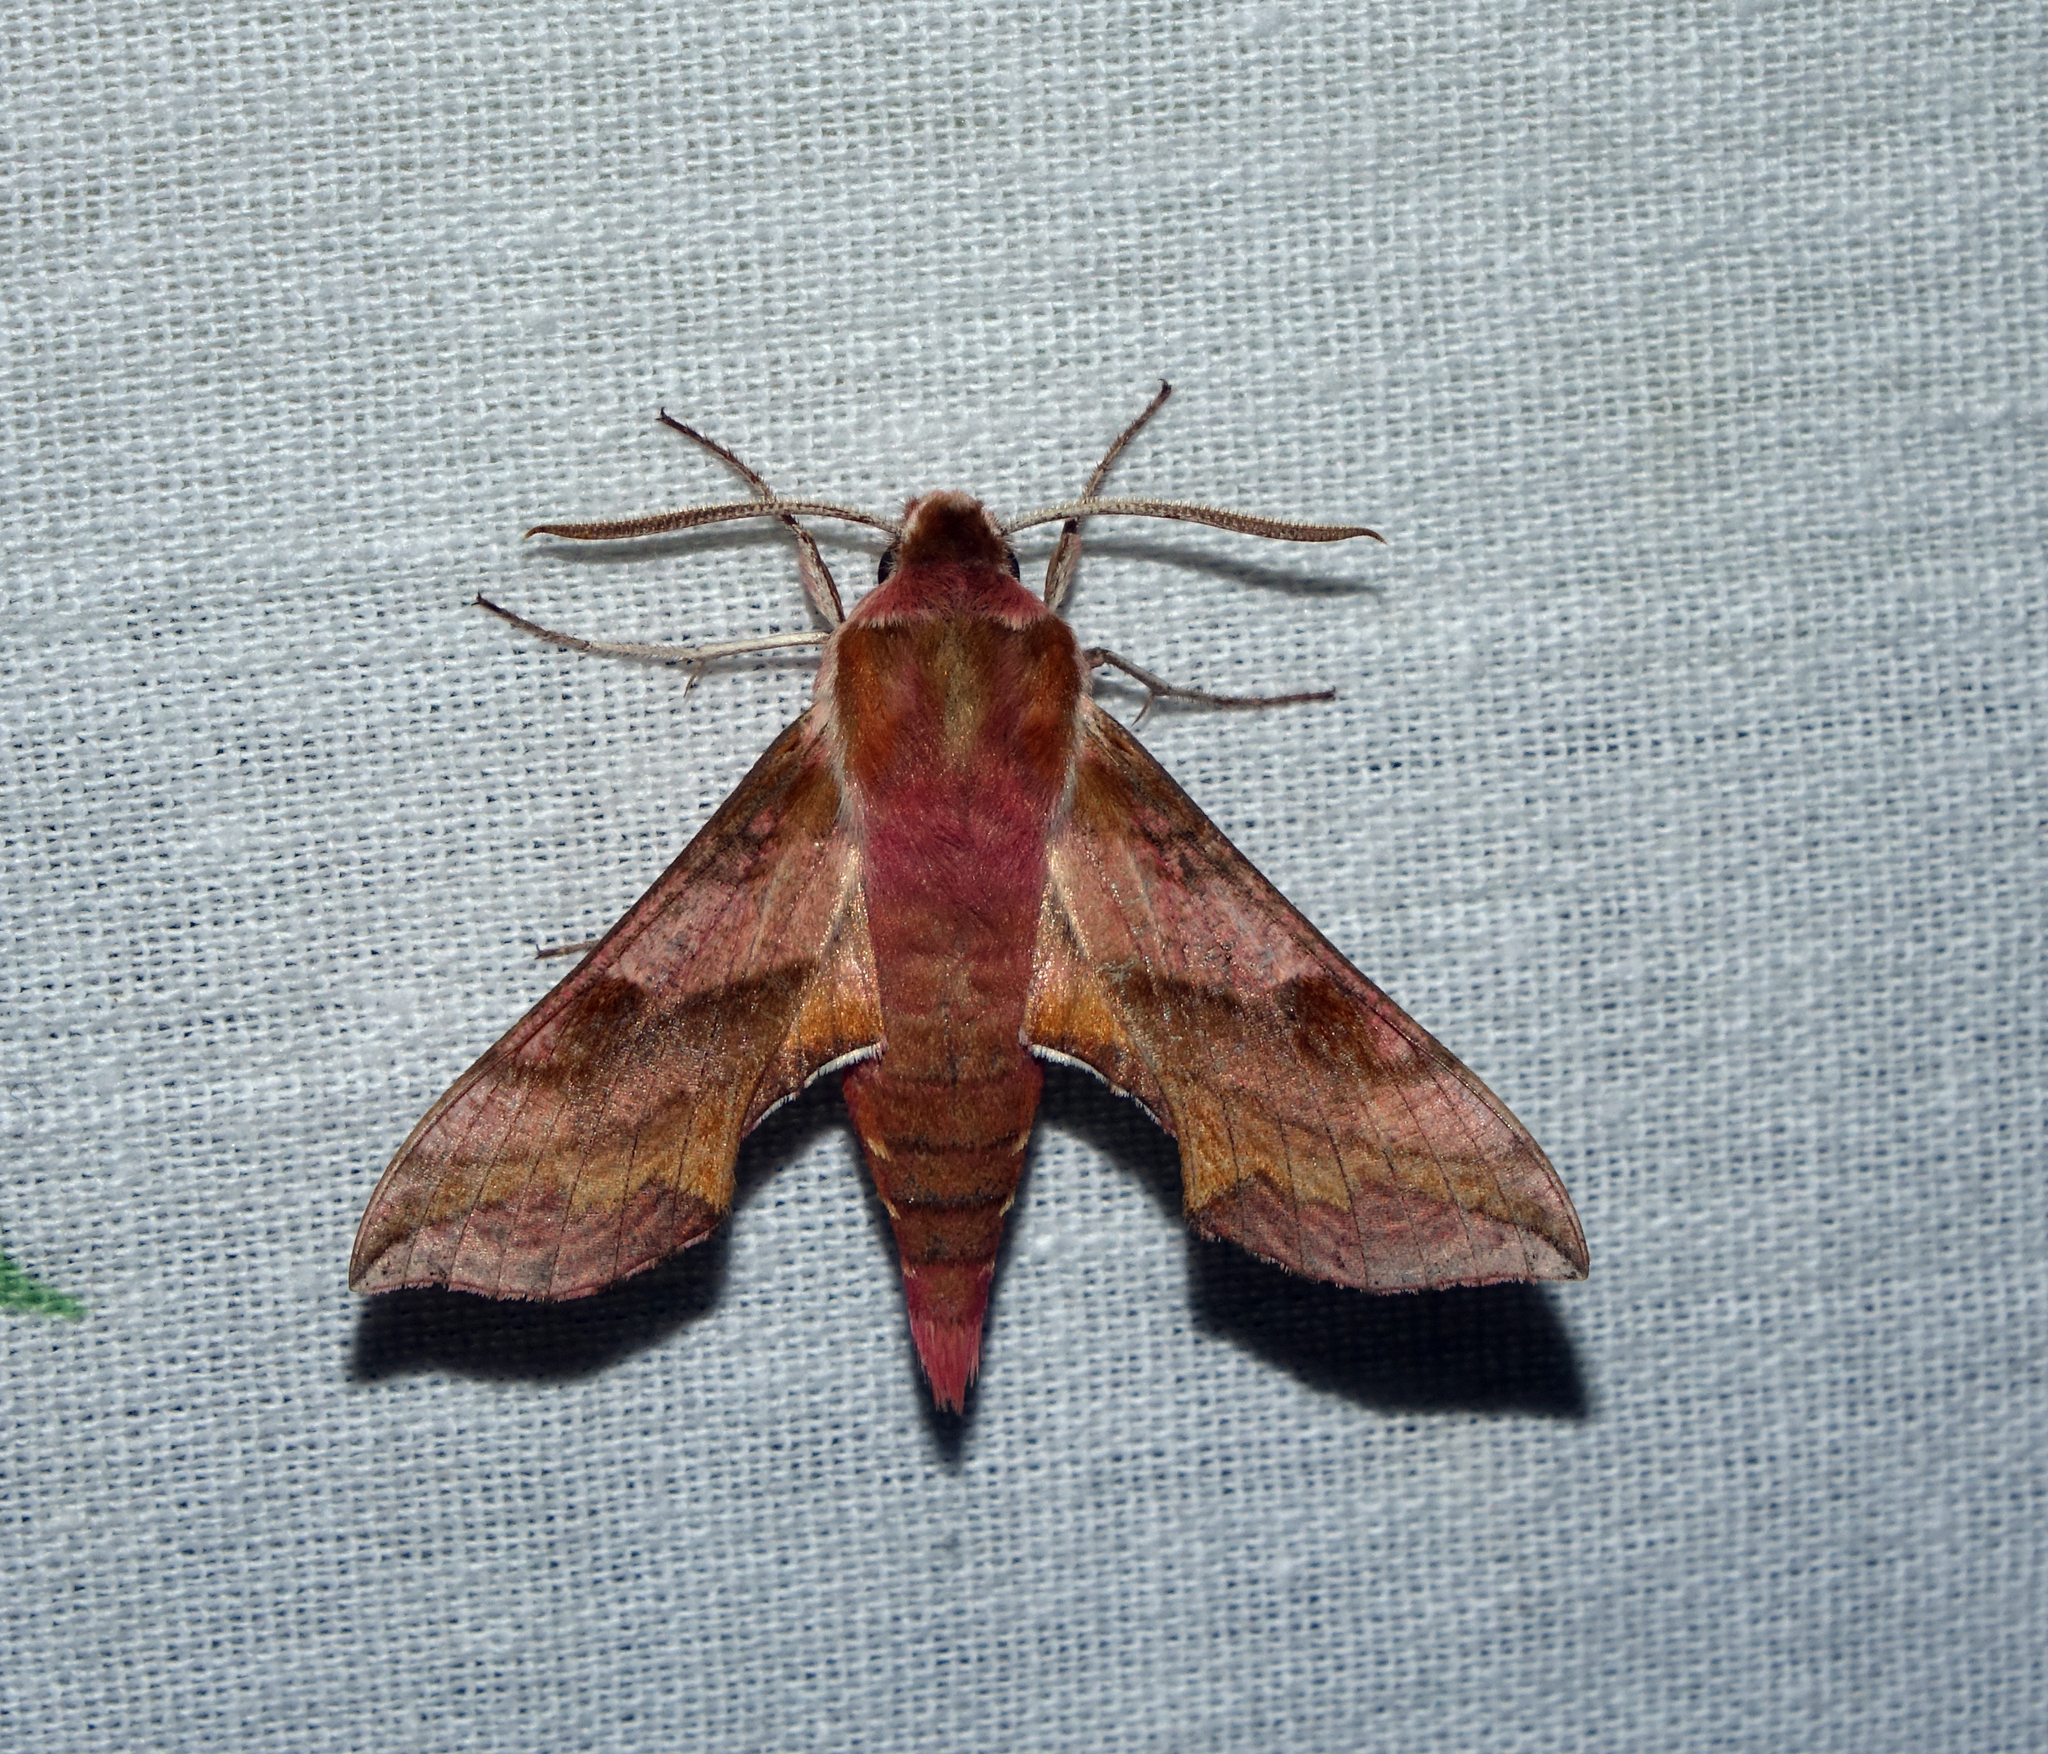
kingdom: Animalia
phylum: Arthropoda
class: Insecta
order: Lepidoptera
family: Sphingidae
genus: Deilephila
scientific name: Deilephila porcellus
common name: Small elephant hawk-moth
